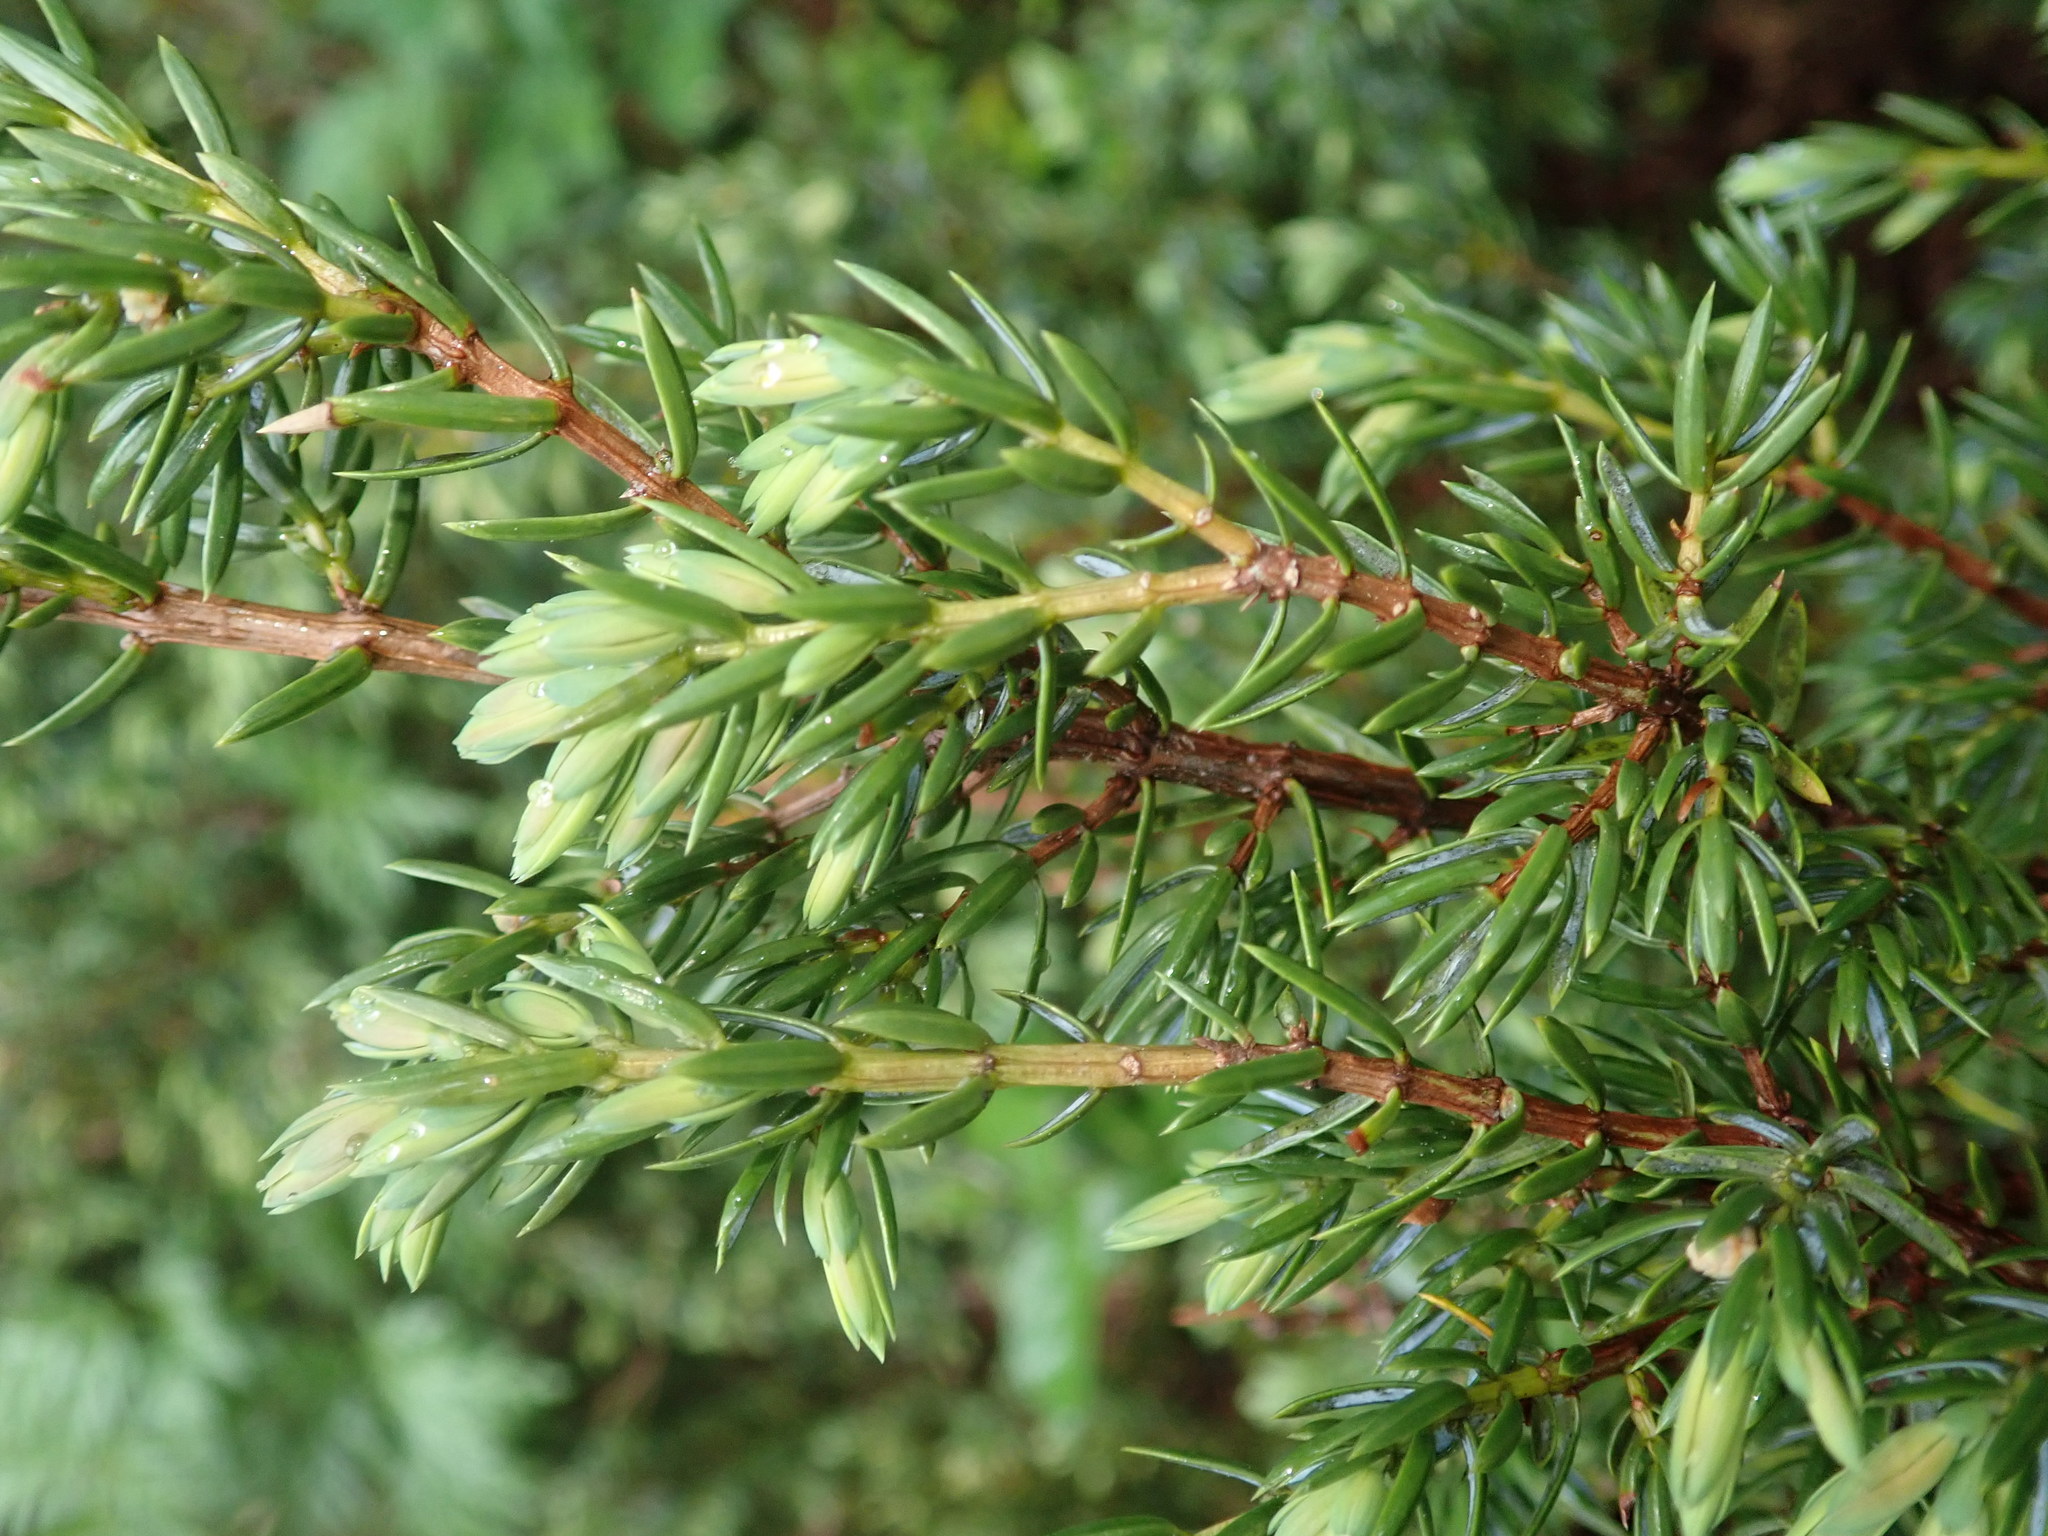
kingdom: Plantae
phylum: Tracheophyta
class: Pinopsida
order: Pinales
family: Cupressaceae
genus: Juniperus
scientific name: Juniperus communis
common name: Common juniper
